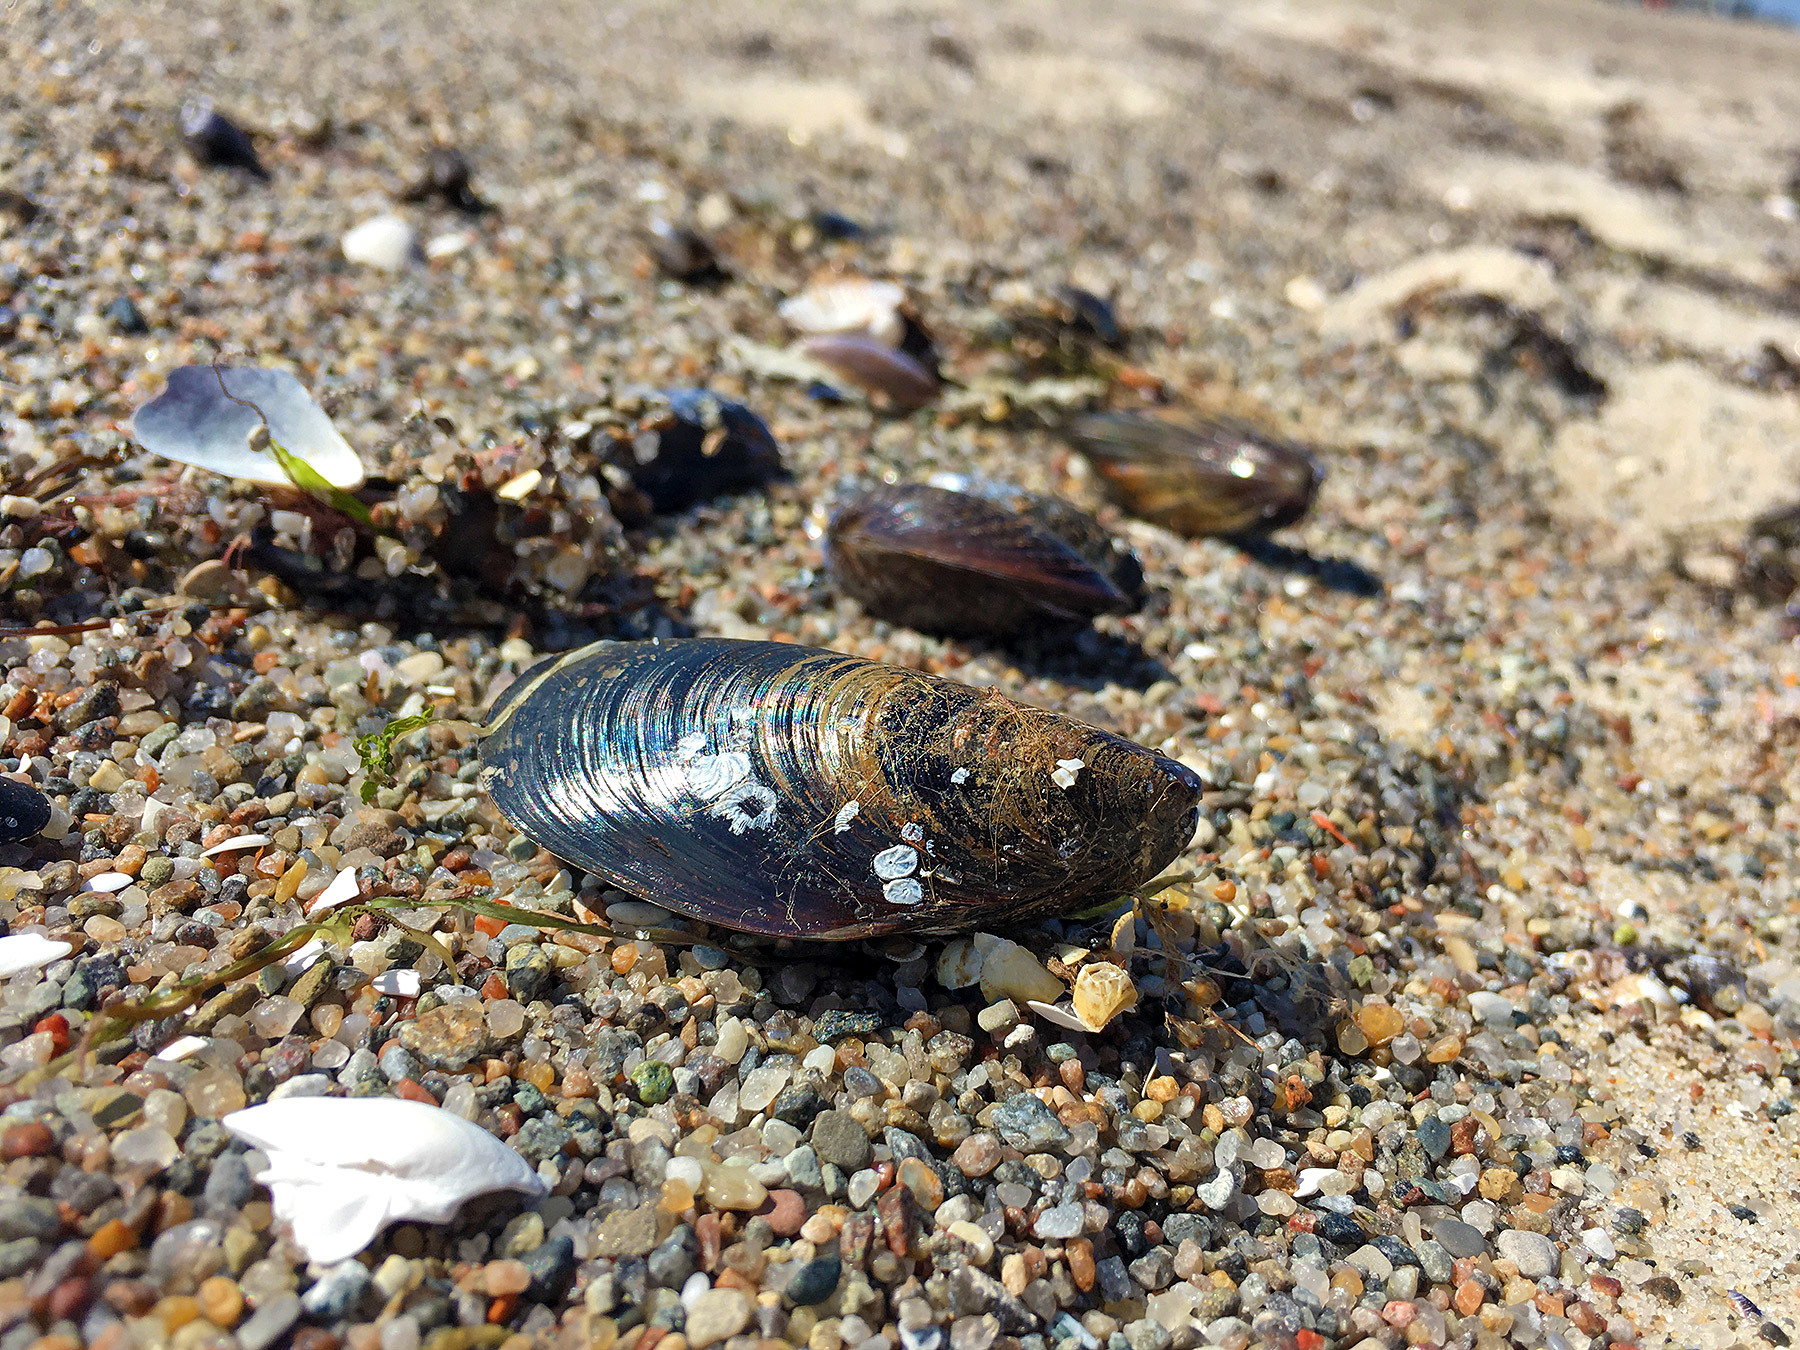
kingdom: Animalia
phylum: Mollusca
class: Bivalvia
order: Mytilida
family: Mytilidae
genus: Mytilus
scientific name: Mytilus edulis
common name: Blue mussel
